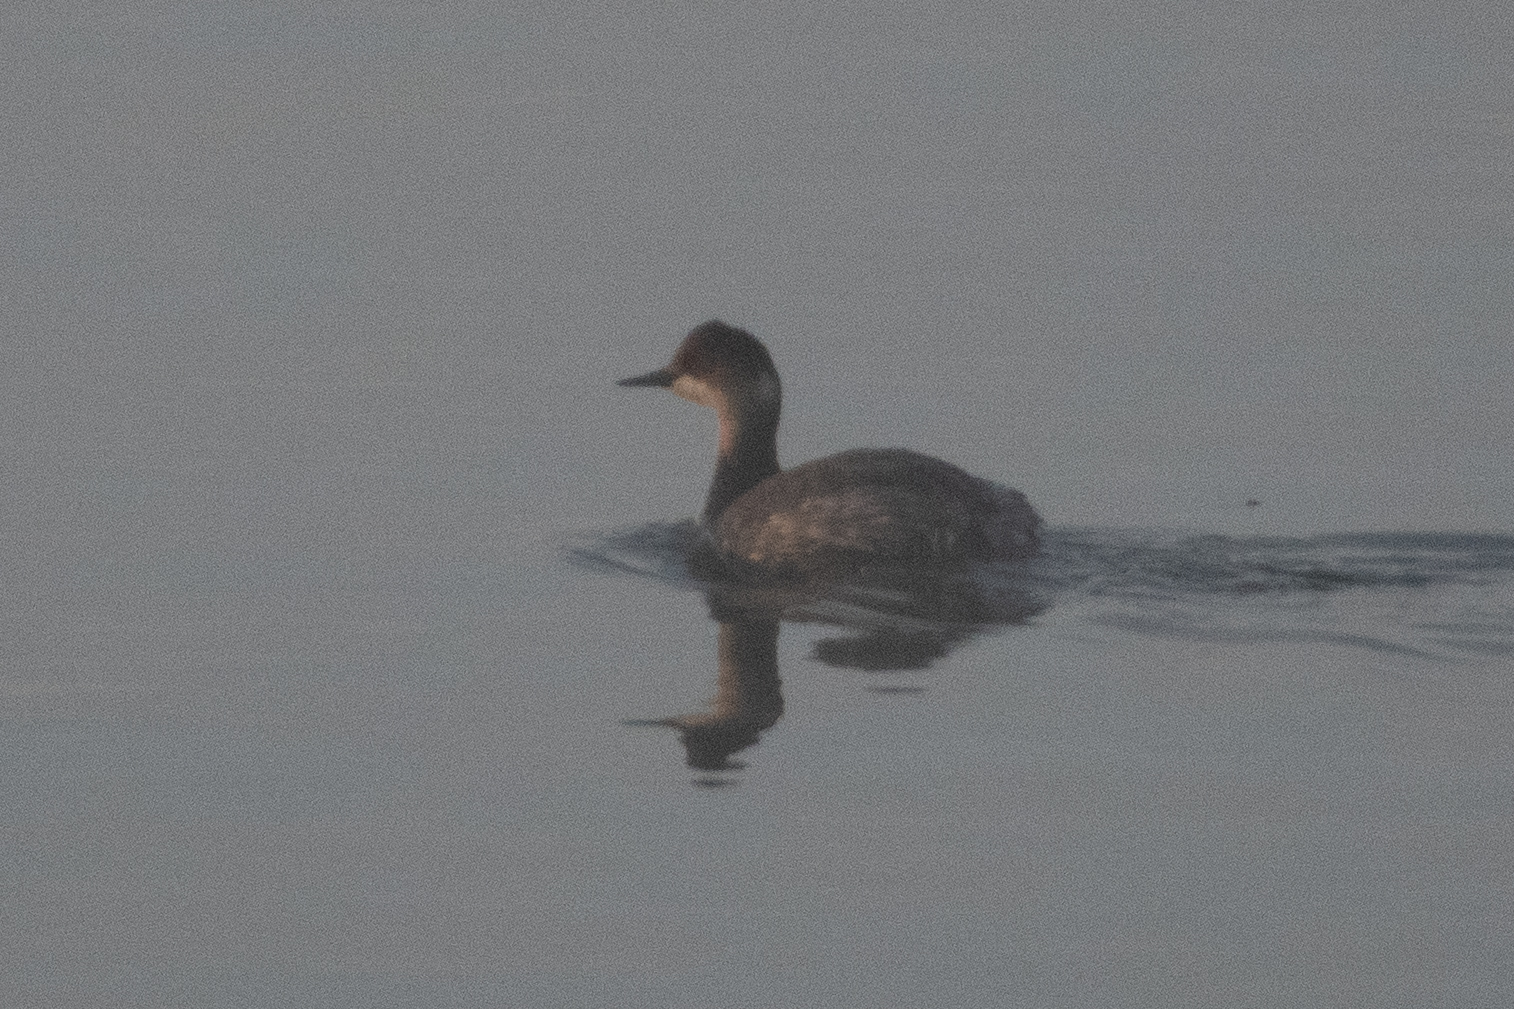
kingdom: Animalia
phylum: Chordata
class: Aves
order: Podicipediformes
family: Podicipedidae
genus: Podiceps
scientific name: Podiceps nigricollis
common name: Black-necked grebe
